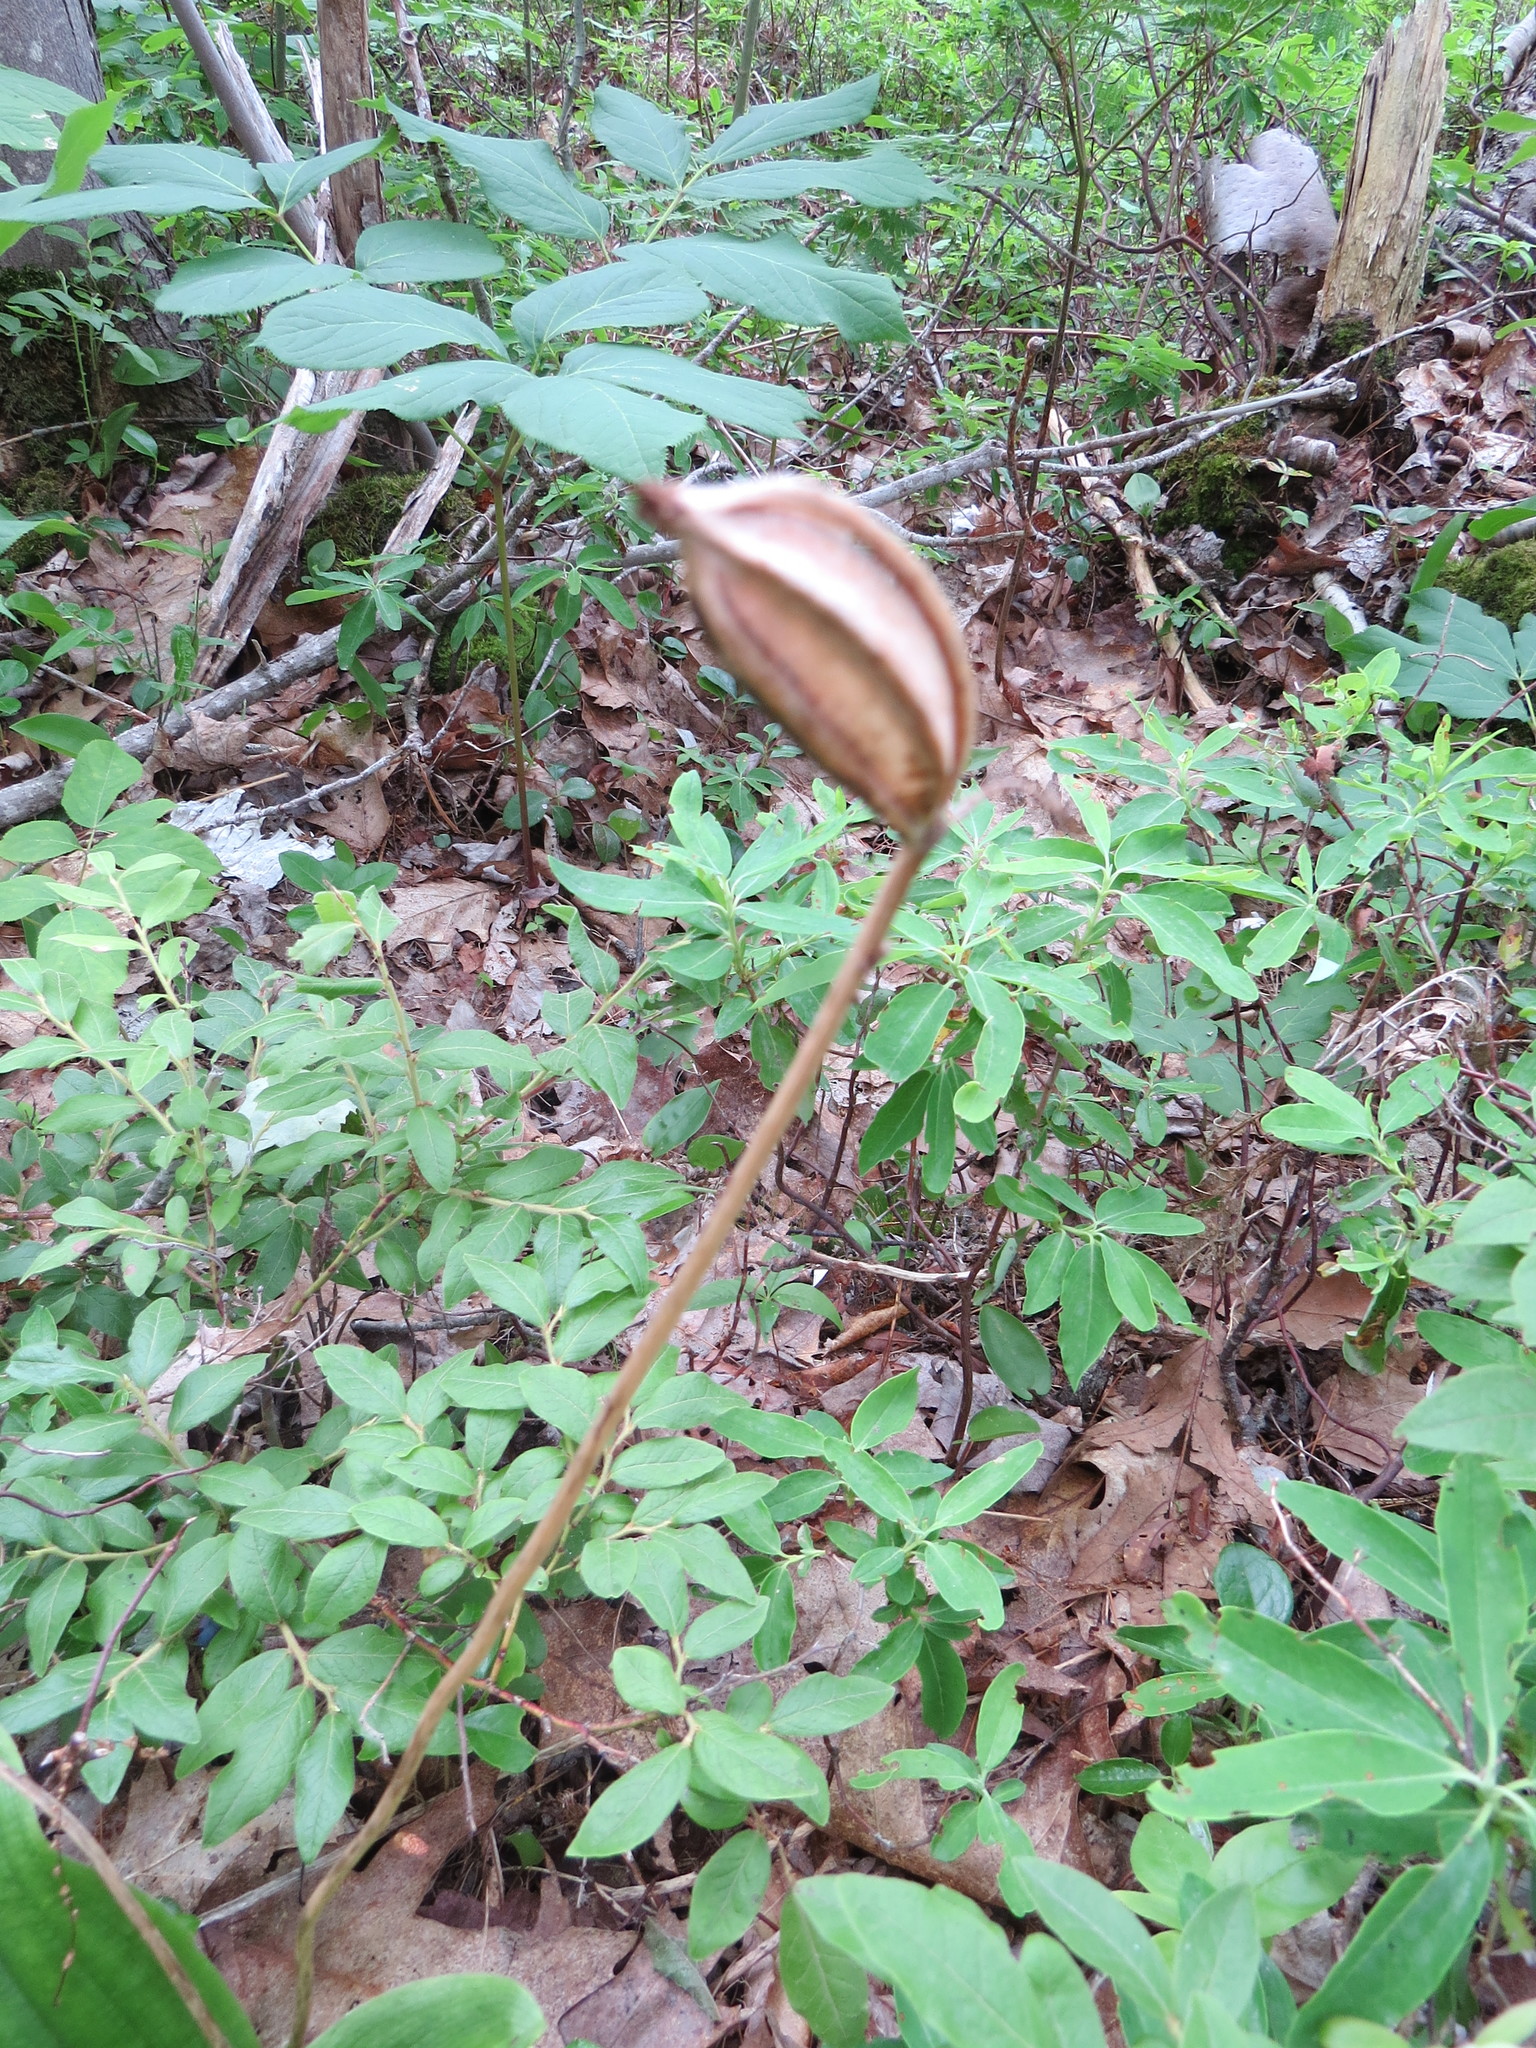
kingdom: Plantae
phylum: Tracheophyta
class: Liliopsida
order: Asparagales
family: Orchidaceae
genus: Cypripedium
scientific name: Cypripedium acaule
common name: Pink lady's-slipper
